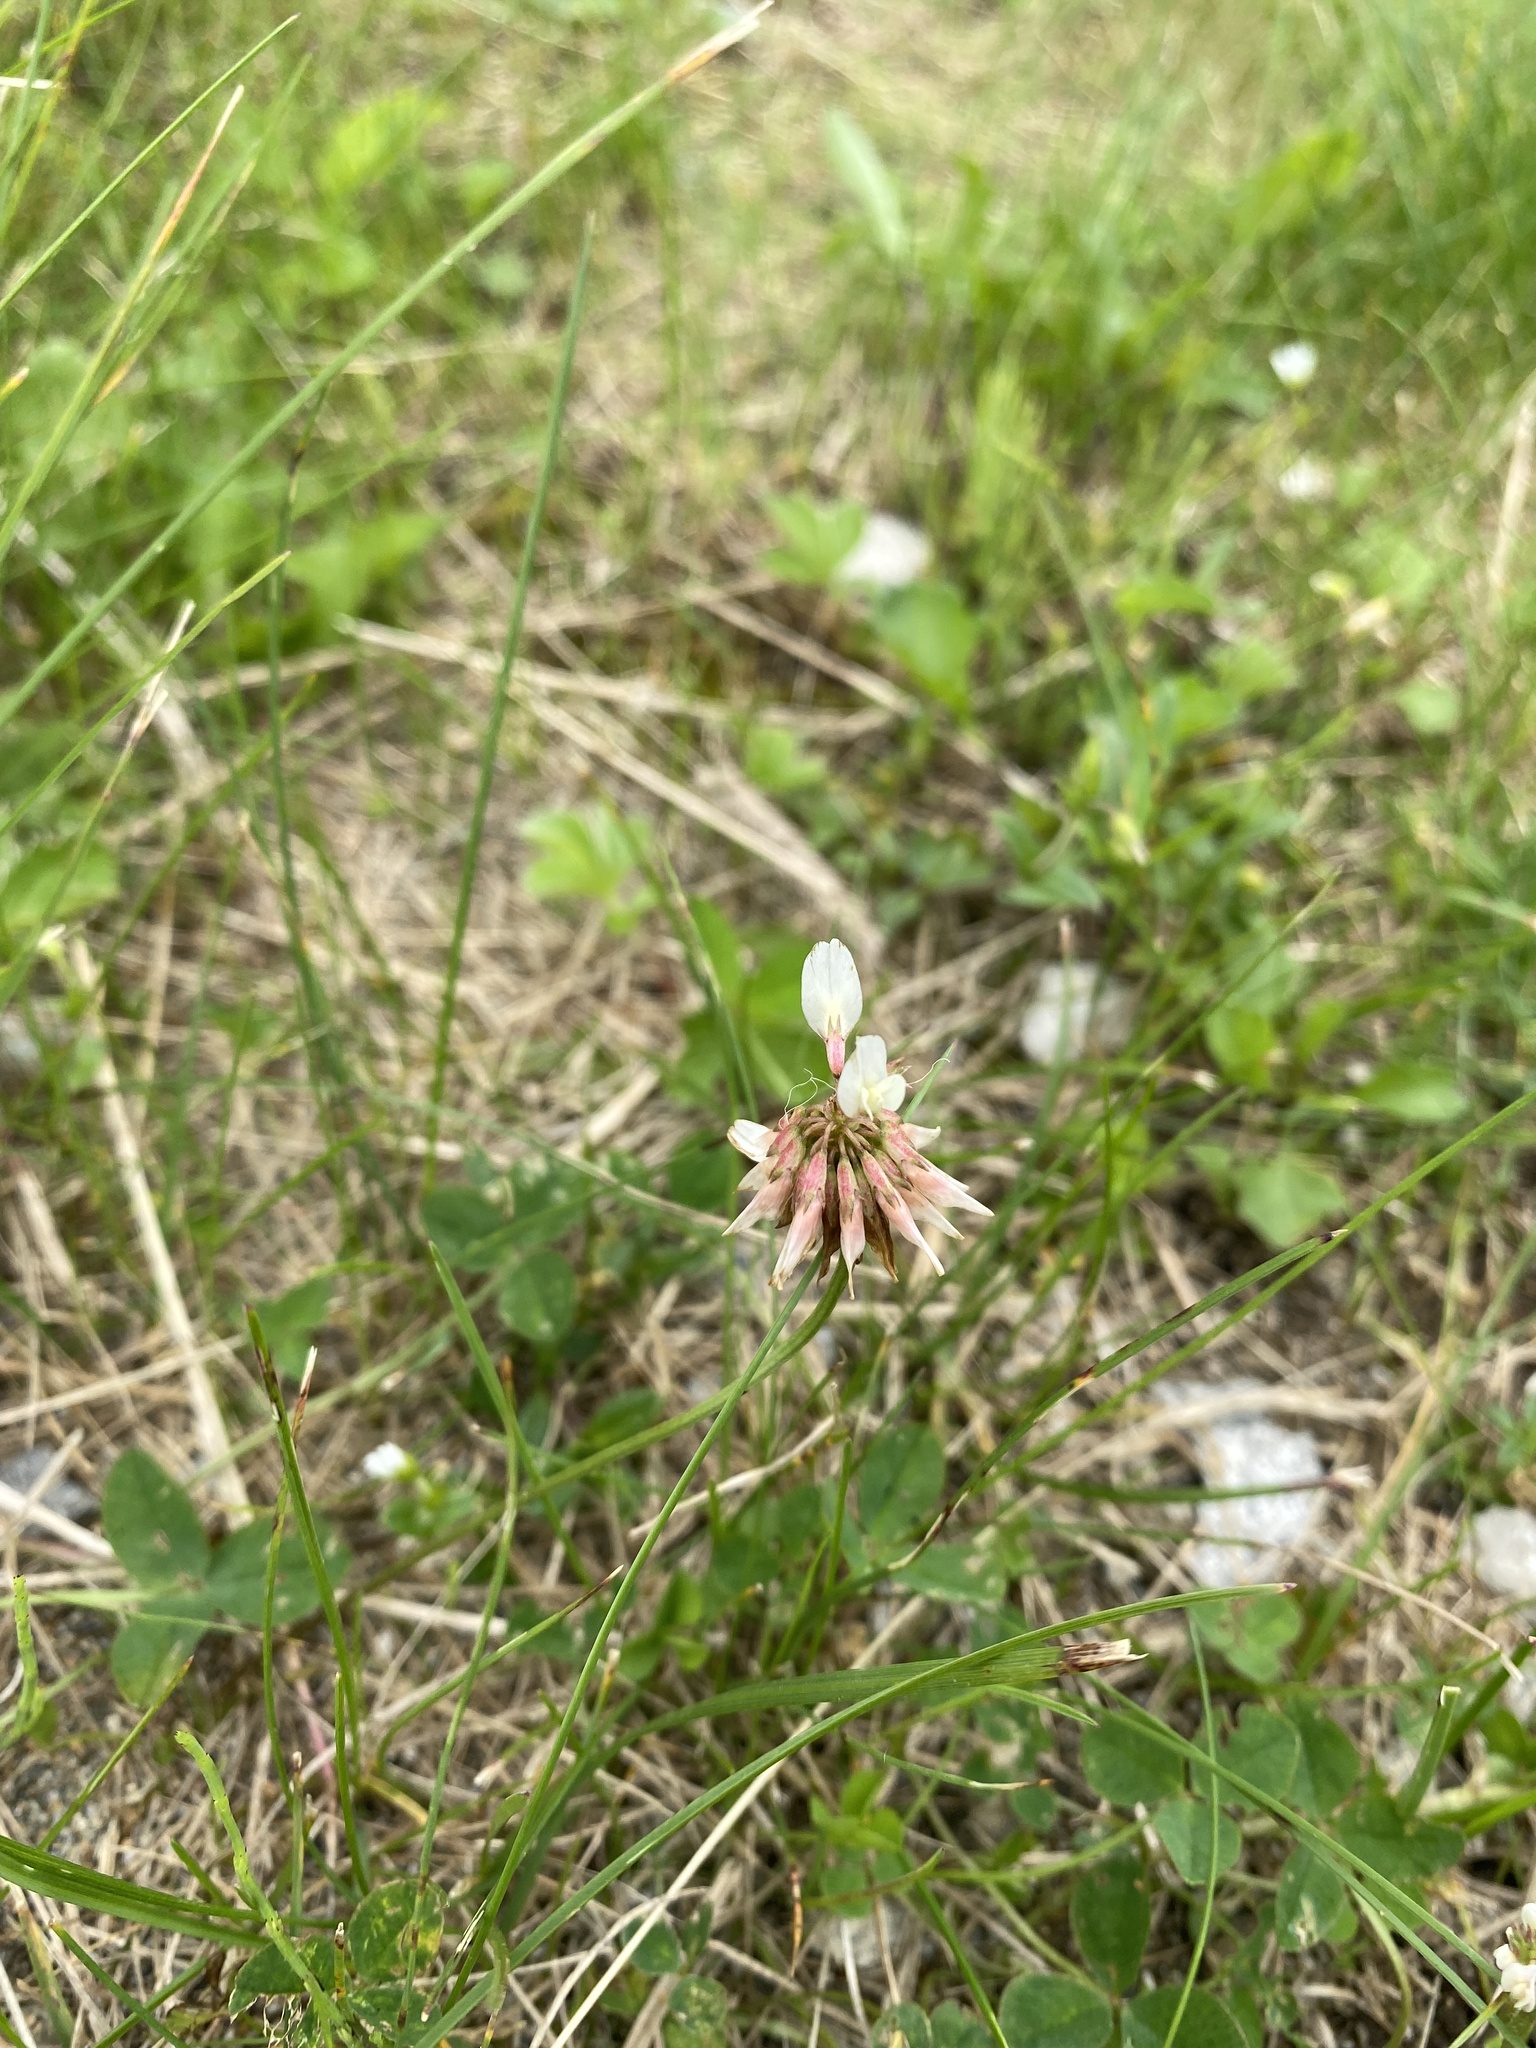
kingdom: Plantae
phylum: Tracheophyta
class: Magnoliopsida
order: Fabales
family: Fabaceae
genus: Trifolium
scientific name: Trifolium repens
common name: White clover
